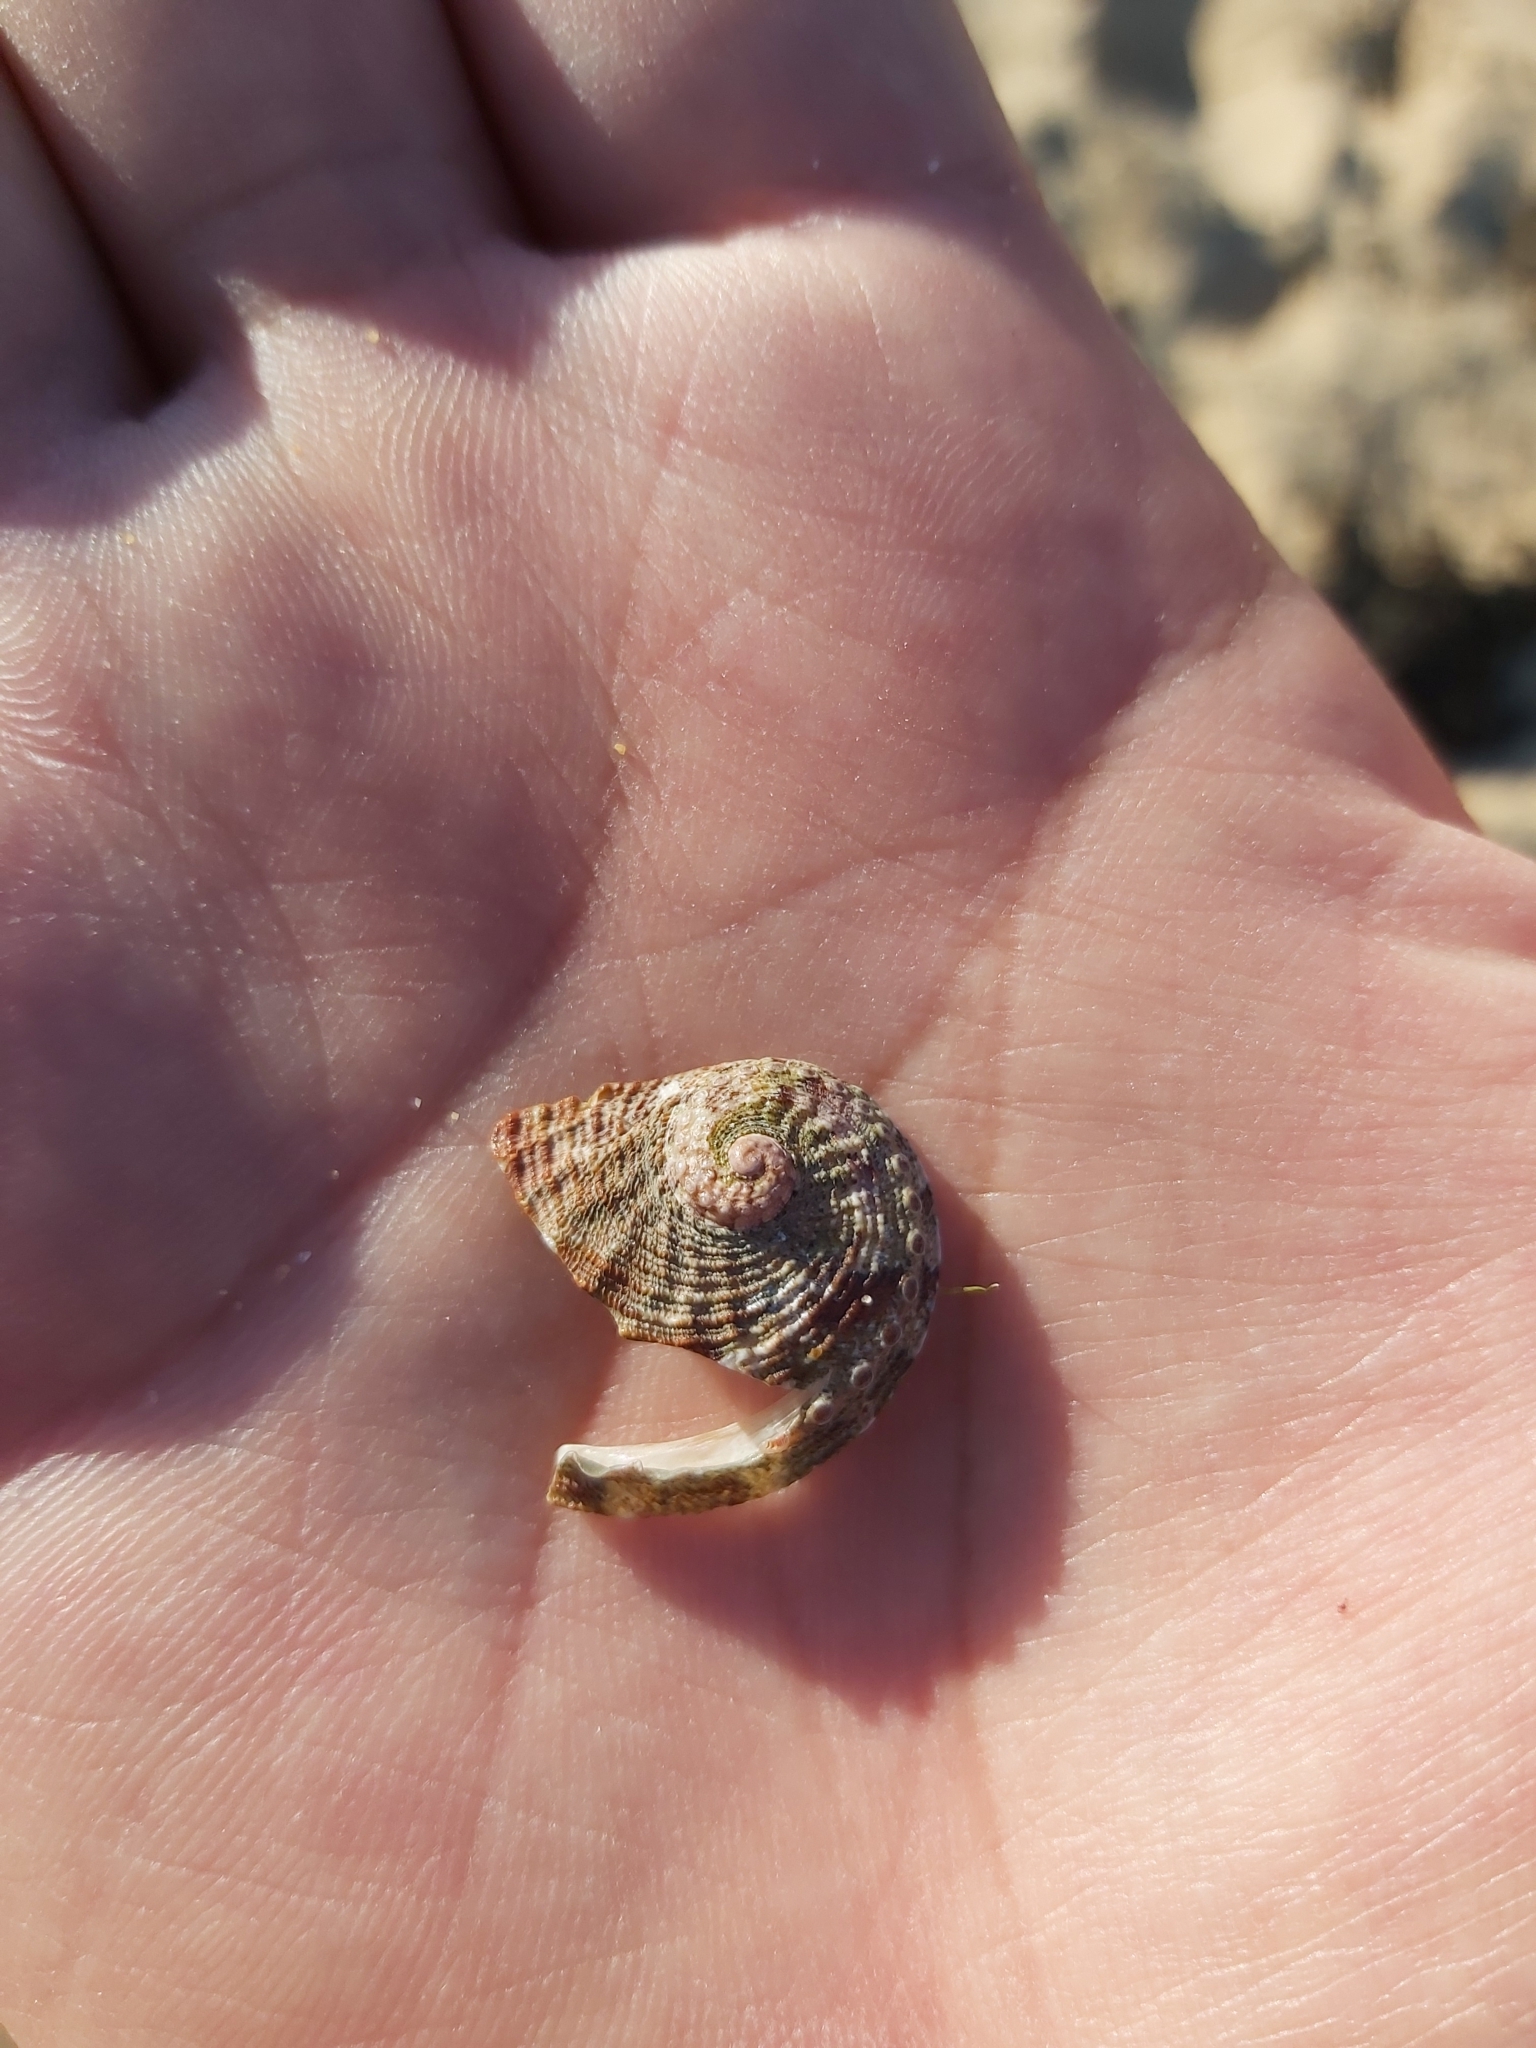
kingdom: Animalia
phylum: Mollusca
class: Gastropoda
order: Lepetellida
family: Haliotidae
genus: Haliotis
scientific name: Haliotis coccoradiata
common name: Reddish-rayed abalone
